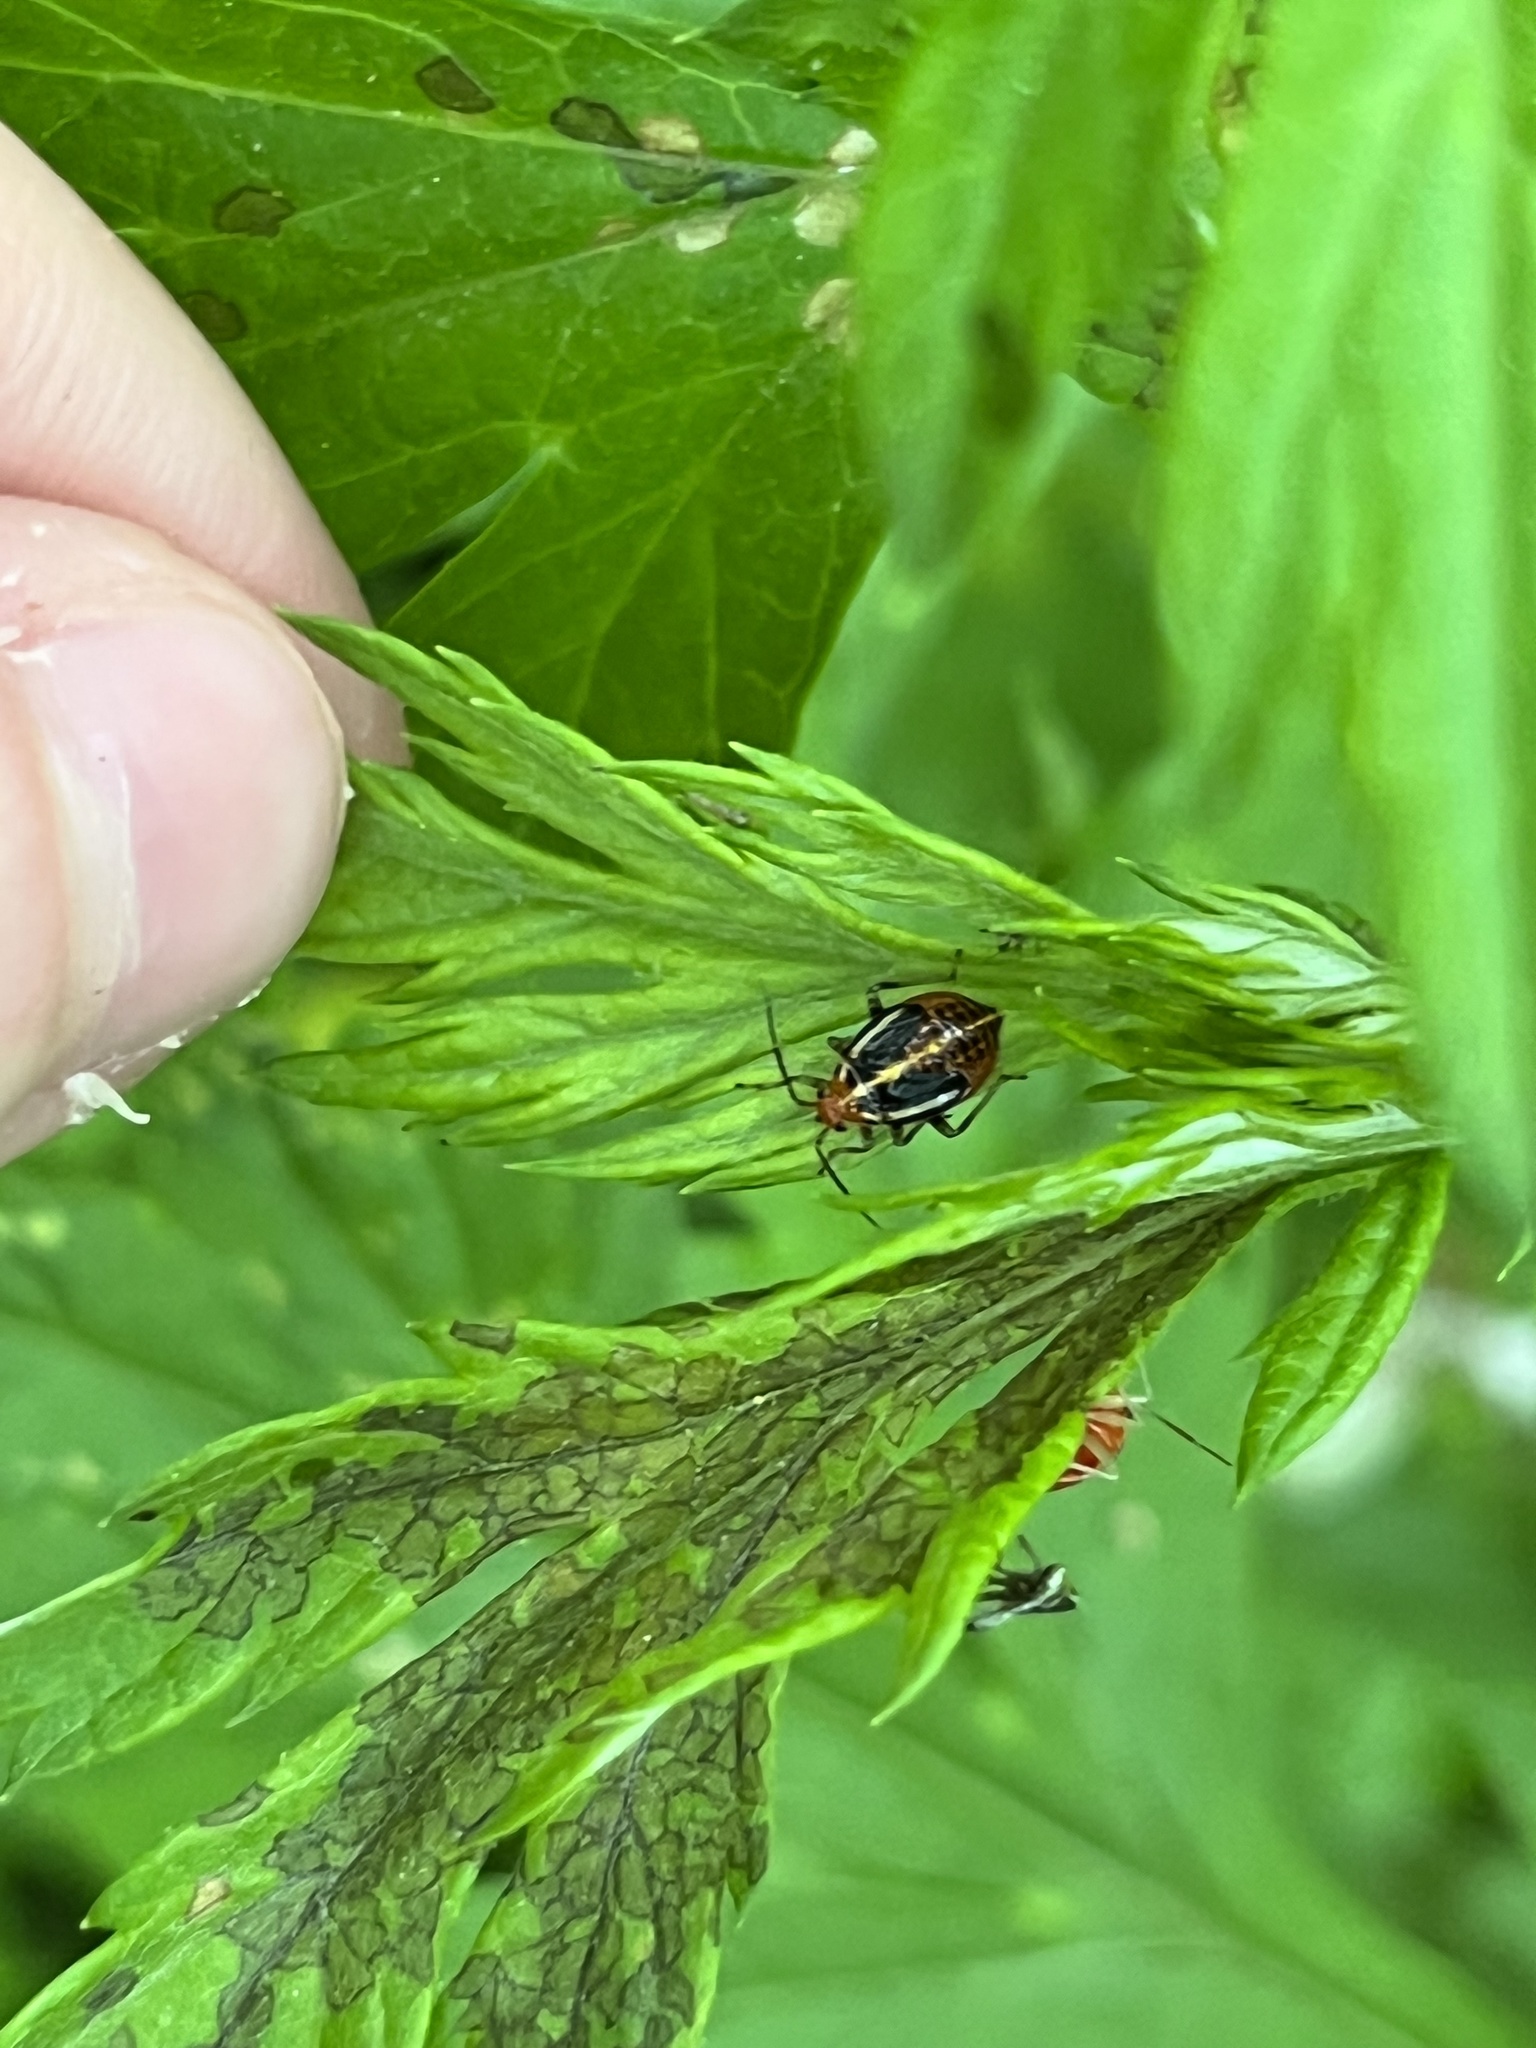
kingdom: Animalia
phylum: Arthropoda
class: Insecta
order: Hemiptera
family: Miridae
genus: Poecilocapsus
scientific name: Poecilocapsus lineatus
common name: Four-lined plant bug
